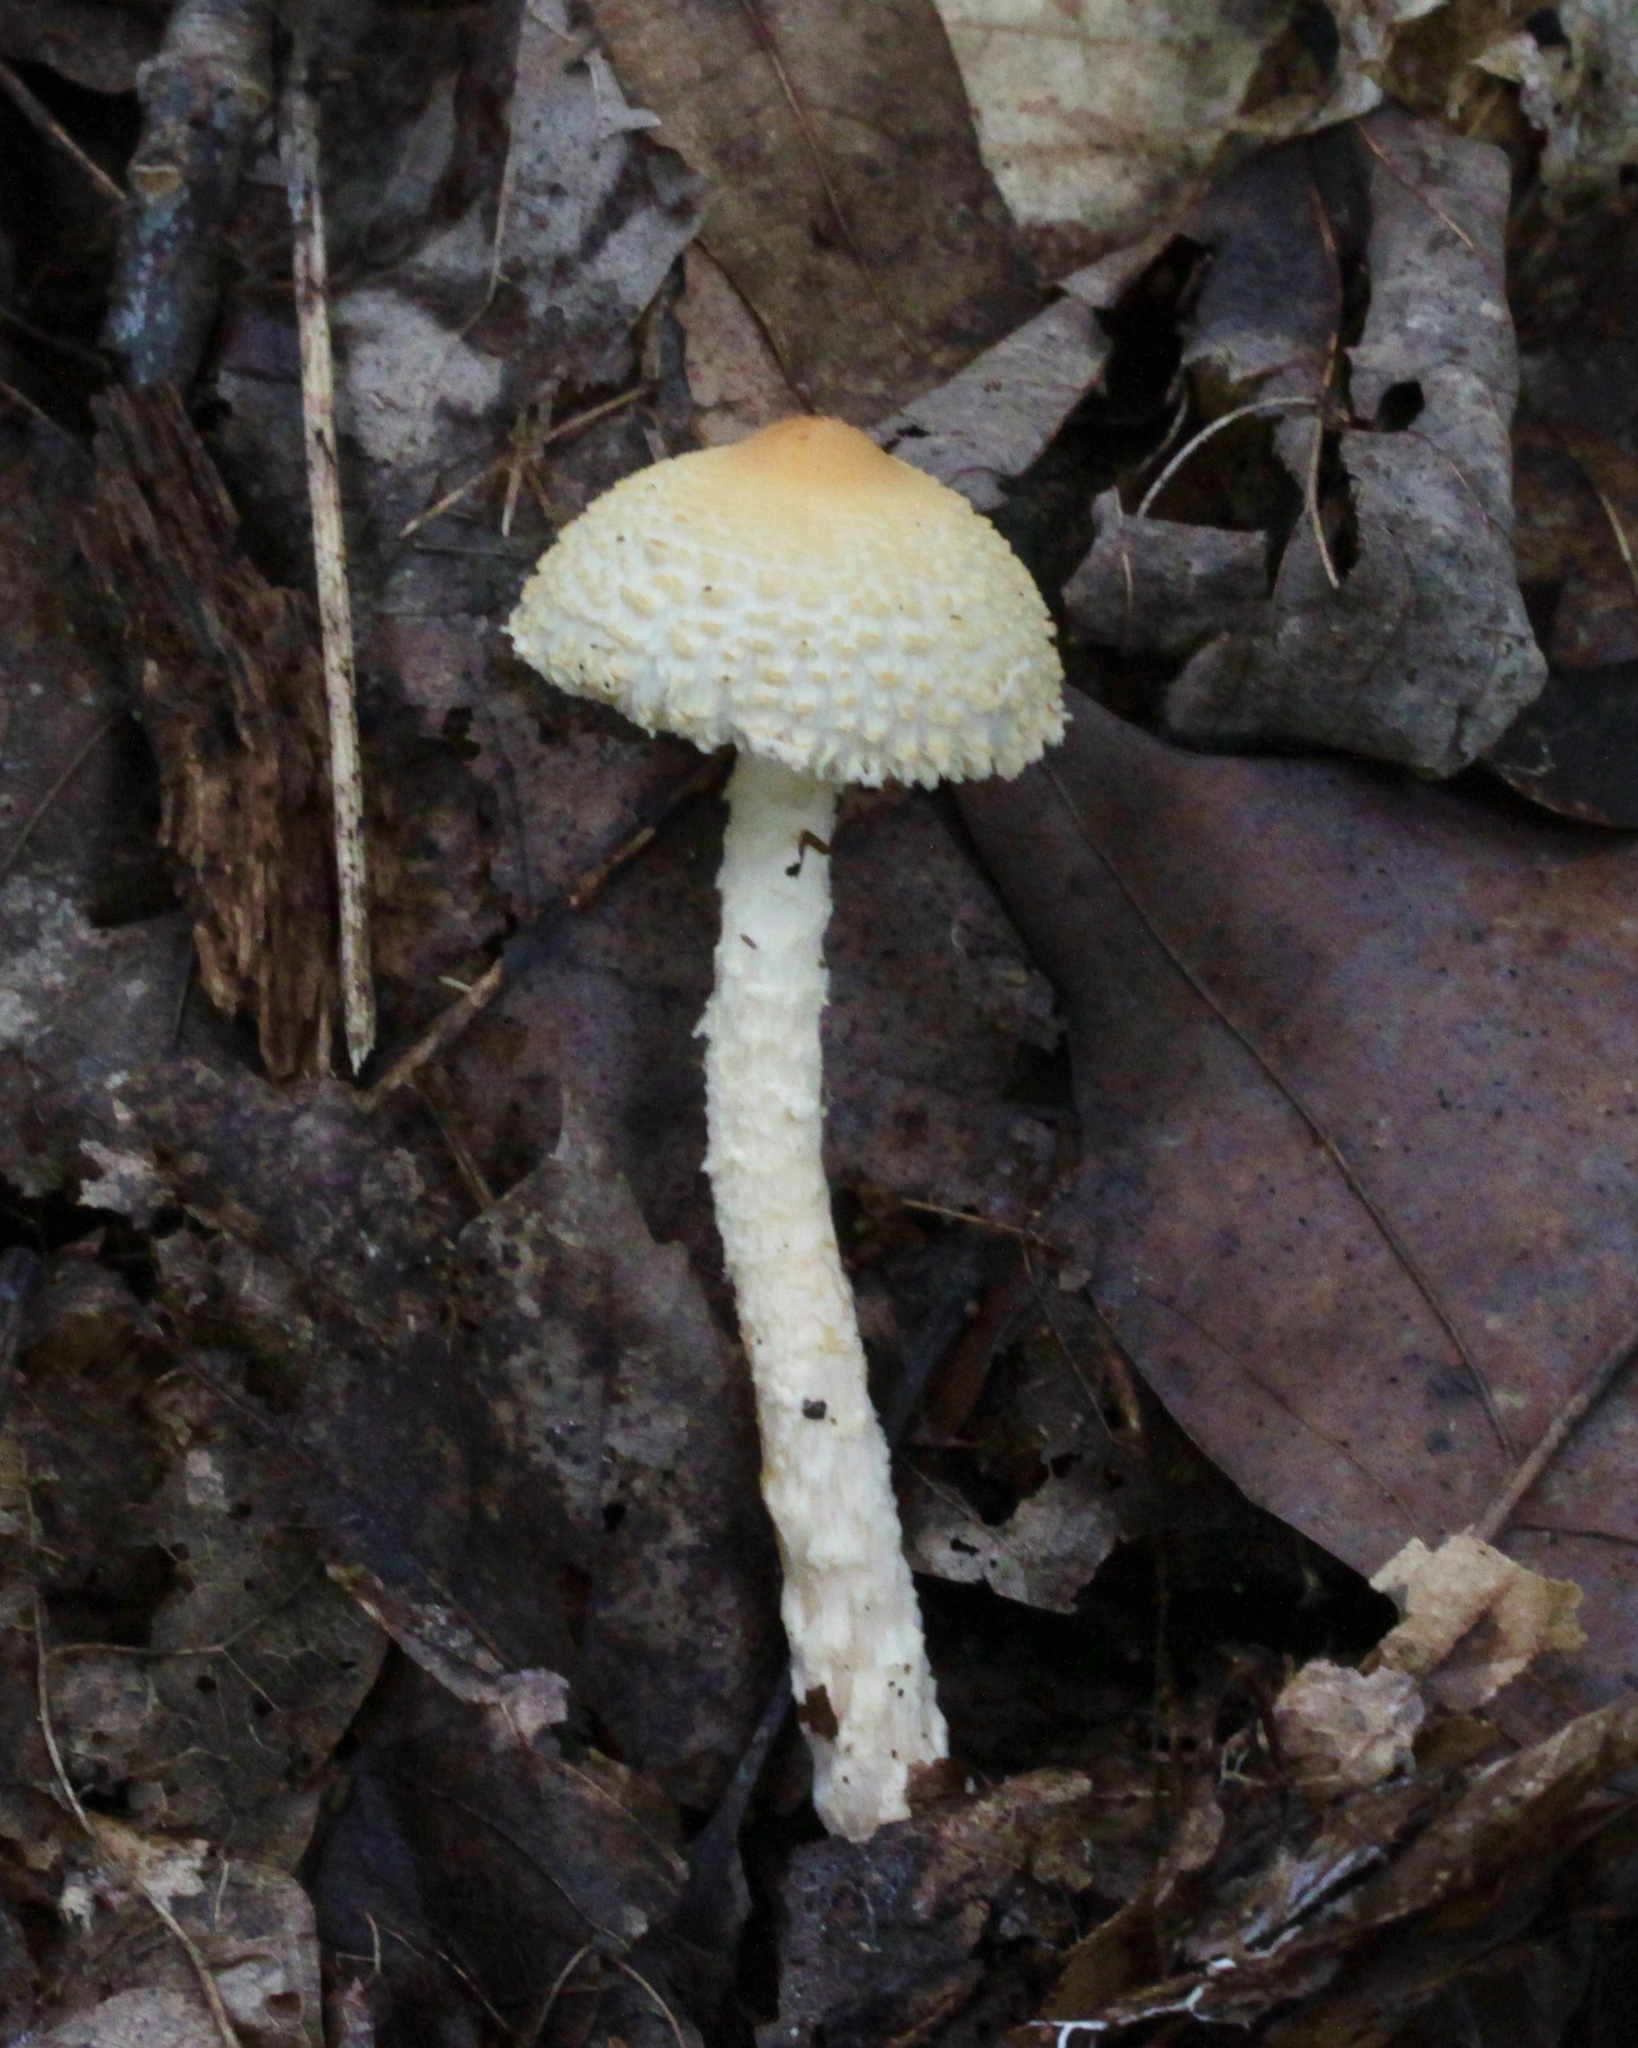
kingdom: Fungi
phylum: Basidiomycota
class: Agaricomycetes
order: Agaricales
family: Agaricaceae
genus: Lepiota
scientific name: Lepiota clypeolaria
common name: Shield dapperling
